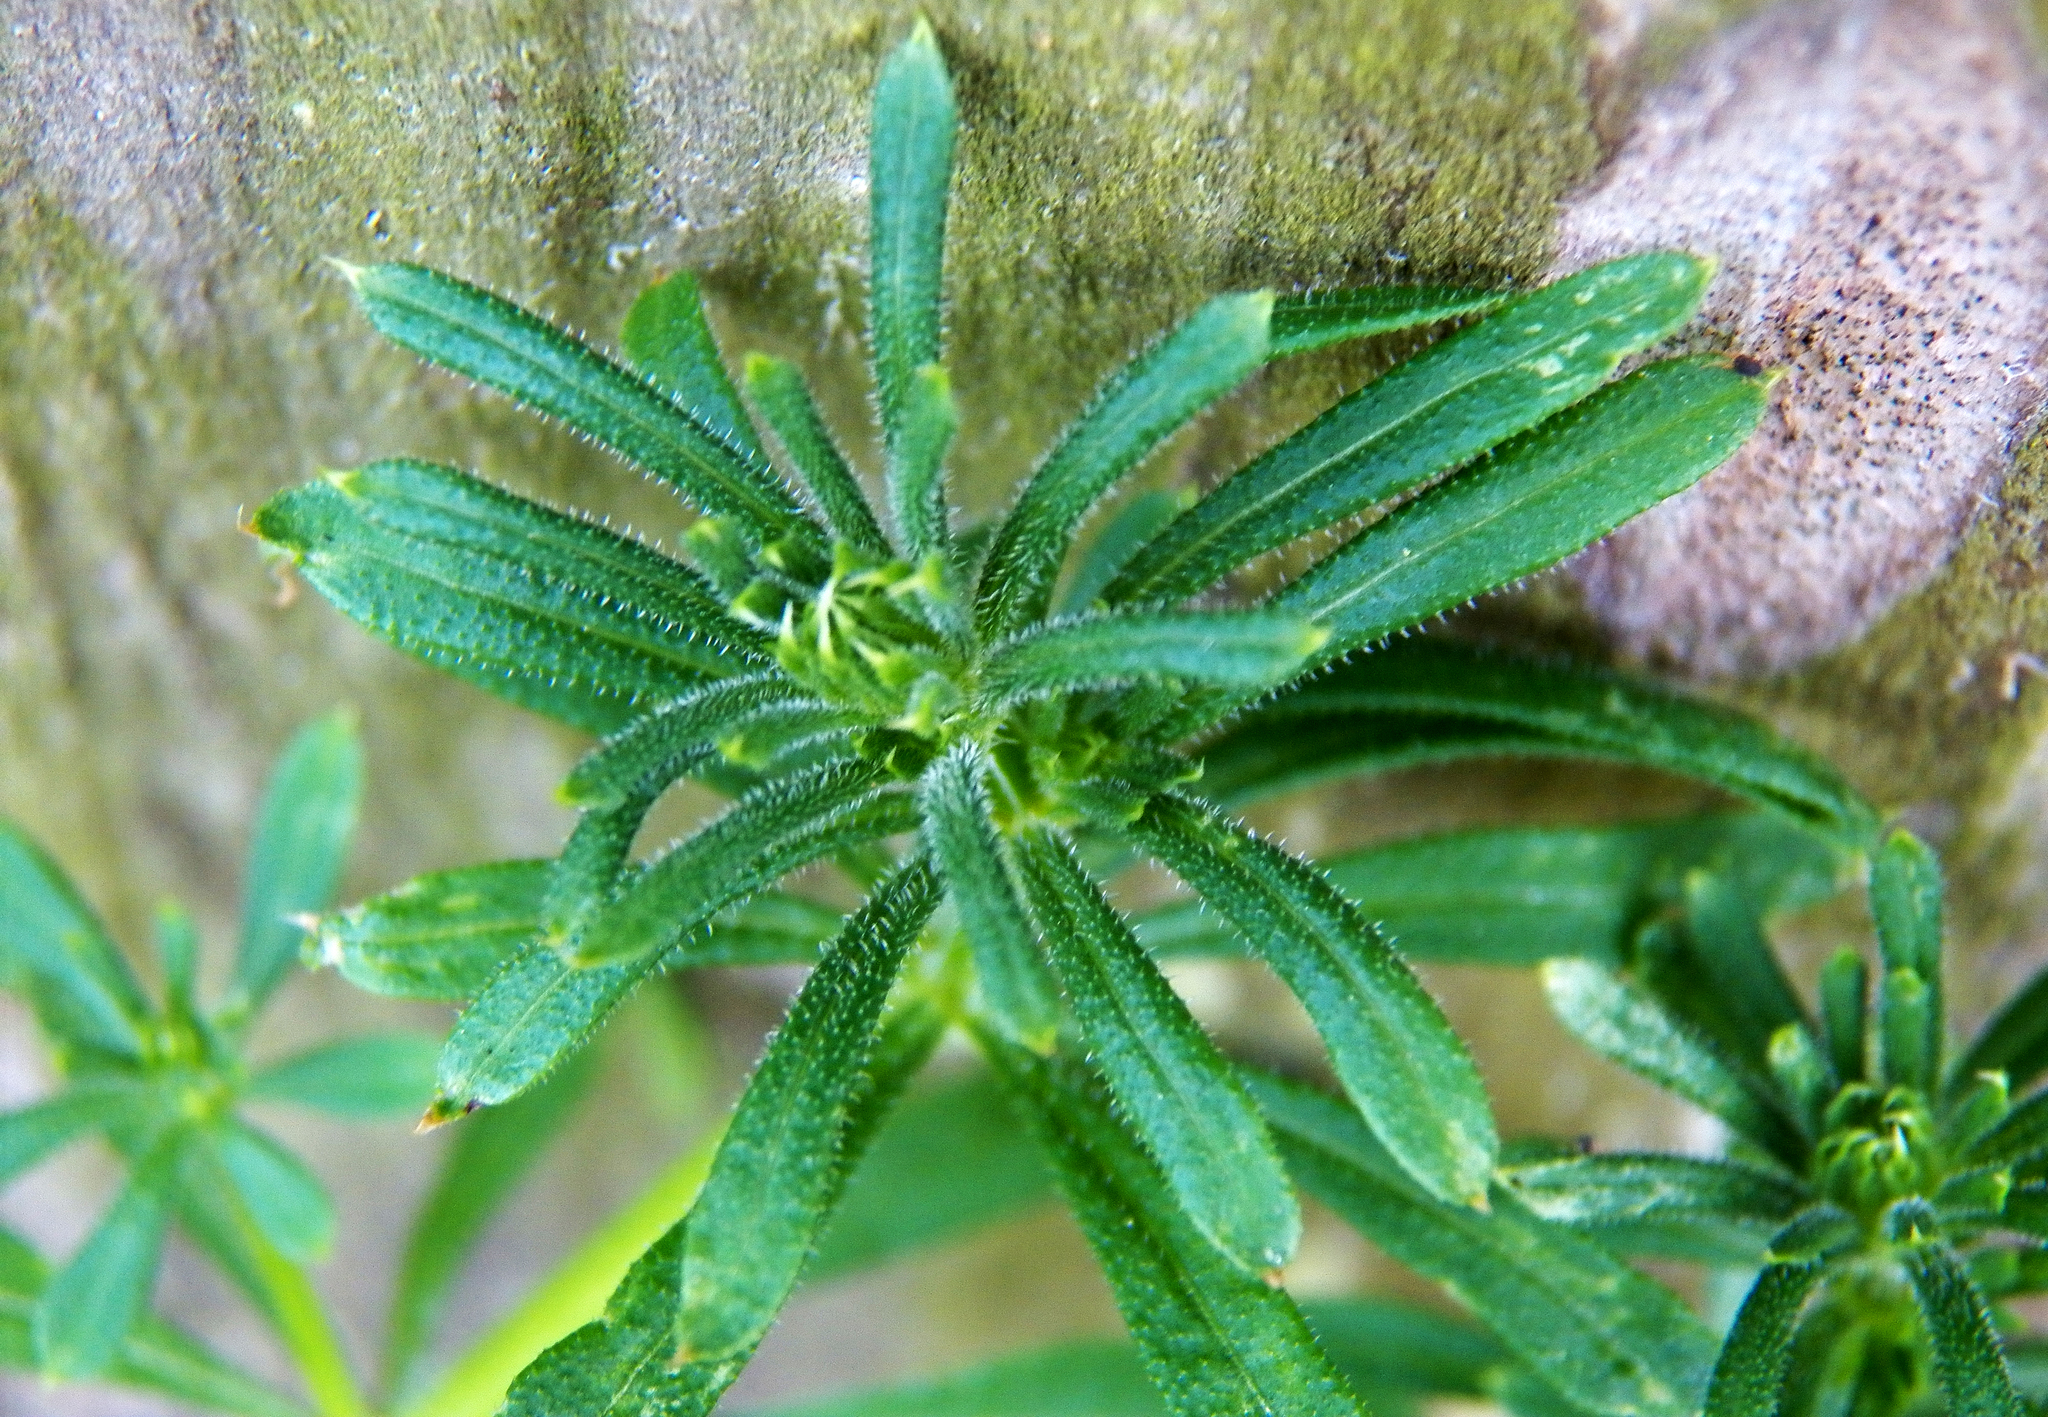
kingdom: Plantae
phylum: Tracheophyta
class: Magnoliopsida
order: Gentianales
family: Rubiaceae
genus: Galium
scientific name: Galium aparine
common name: Cleavers
